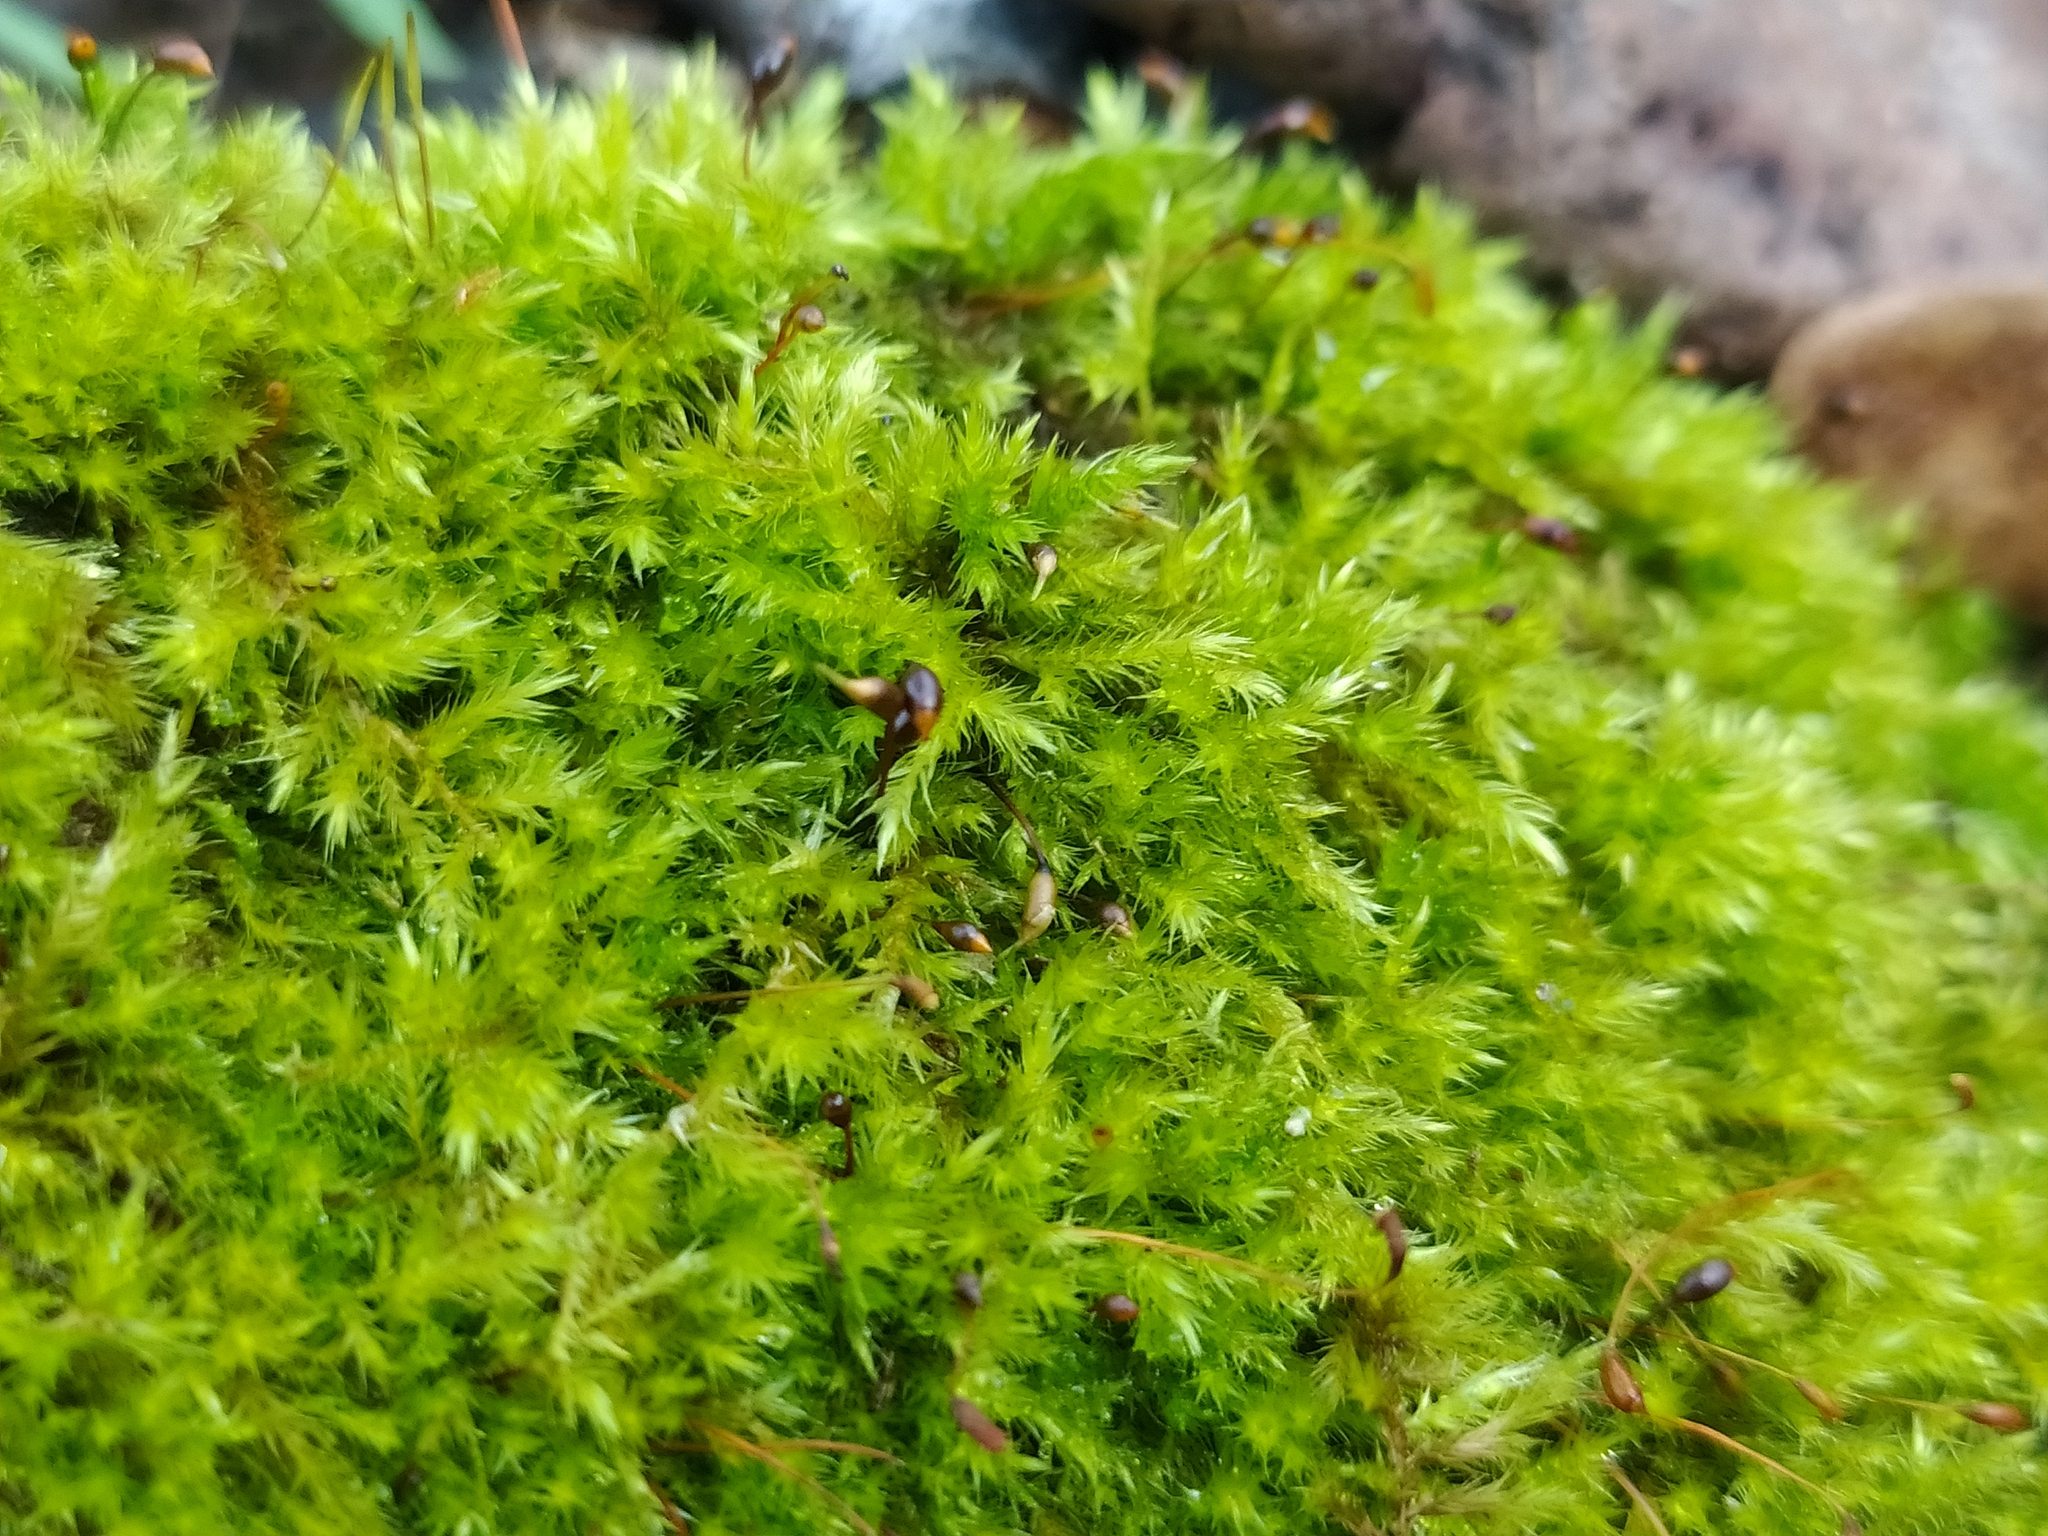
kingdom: Plantae
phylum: Bryophyta
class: Bryopsida
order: Hypnales
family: Brachytheciaceae
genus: Sciuro-hypnum
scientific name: Sciuro-hypnum populeum
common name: Matted feather-moss
